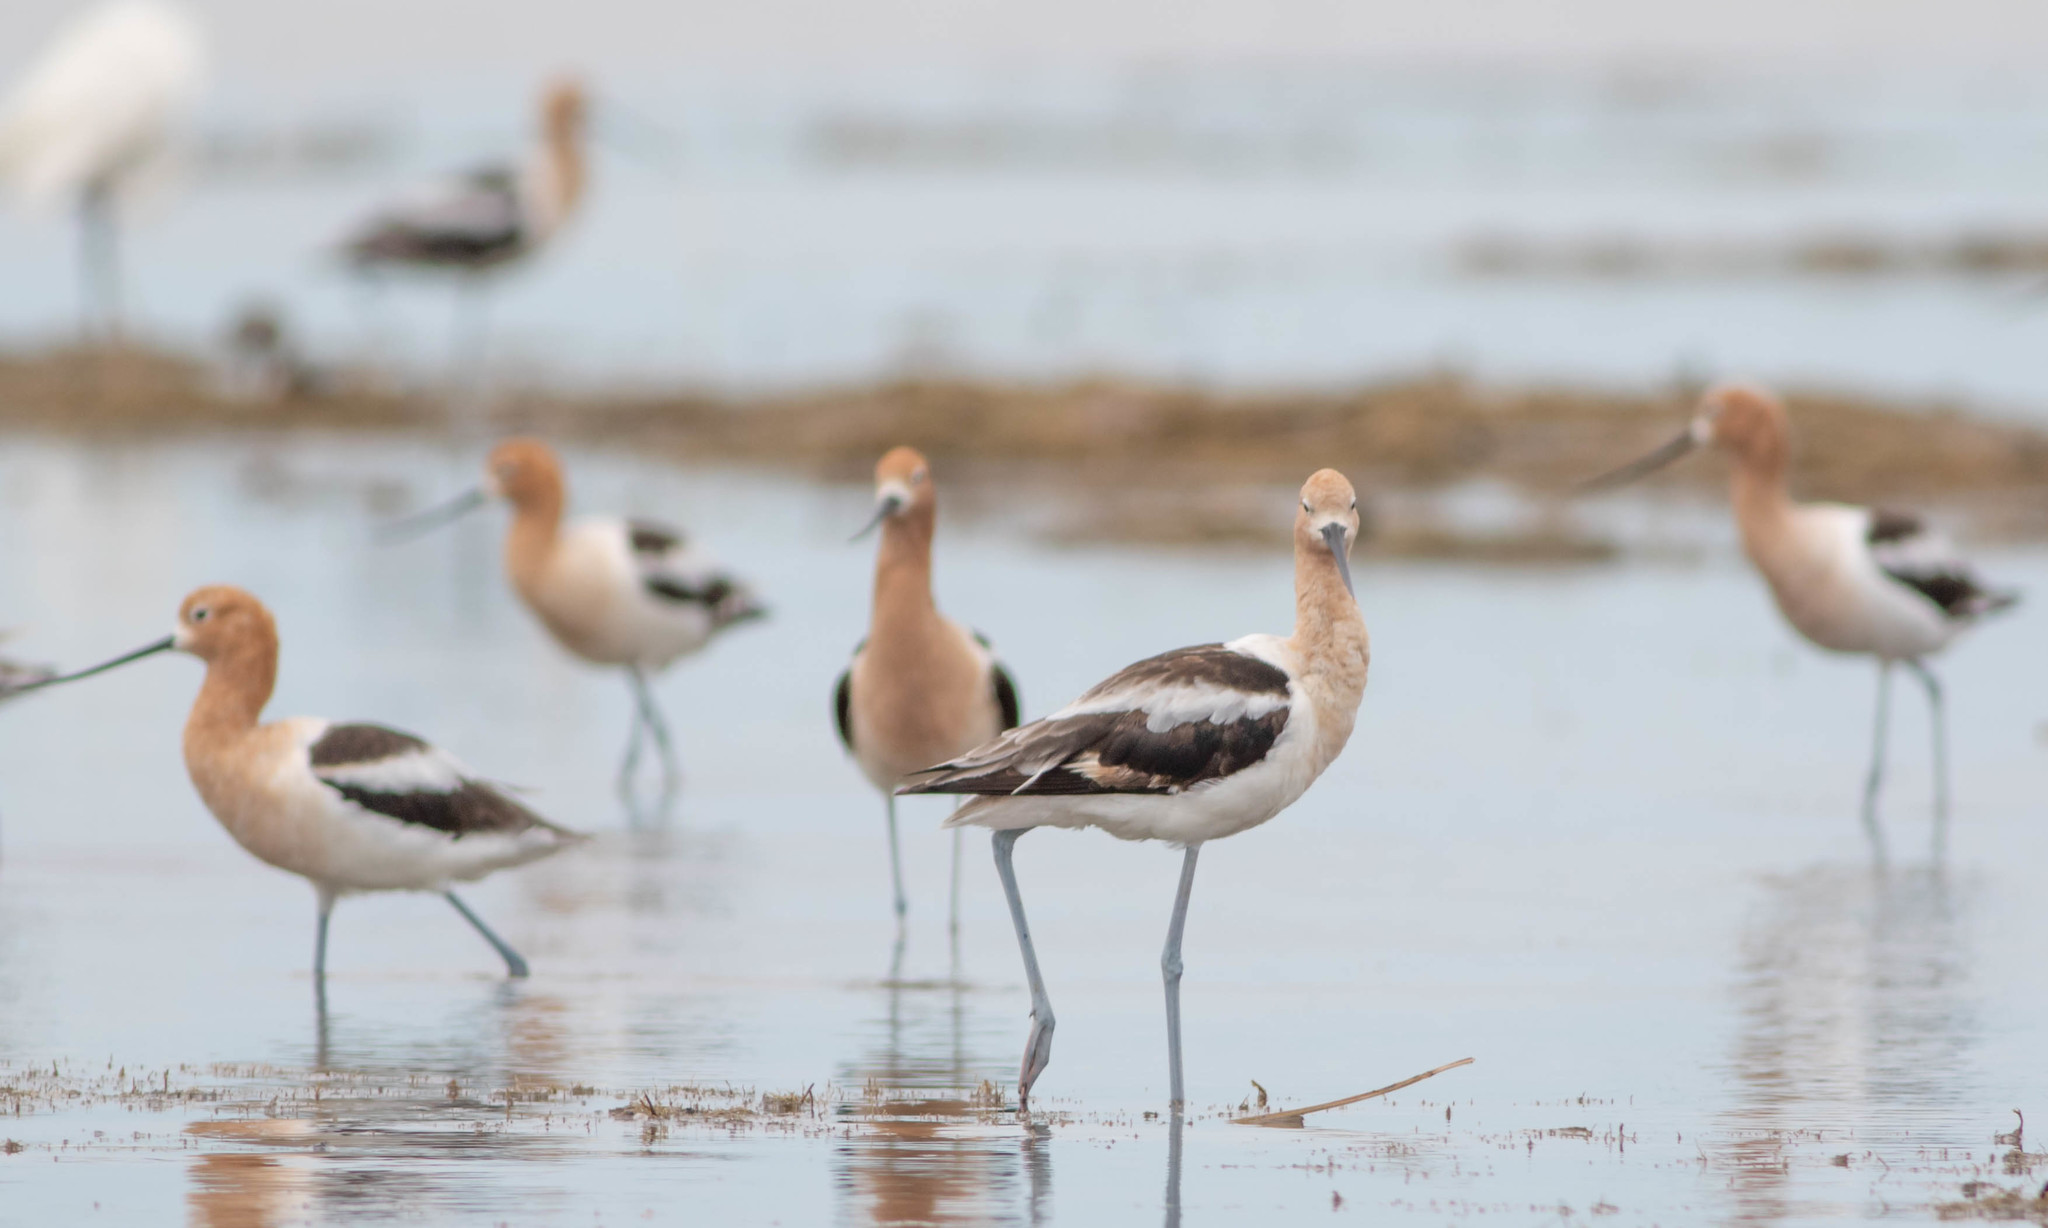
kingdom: Animalia
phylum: Chordata
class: Aves
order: Charadriiformes
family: Recurvirostridae
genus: Recurvirostra
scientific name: Recurvirostra americana
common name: American avocet
